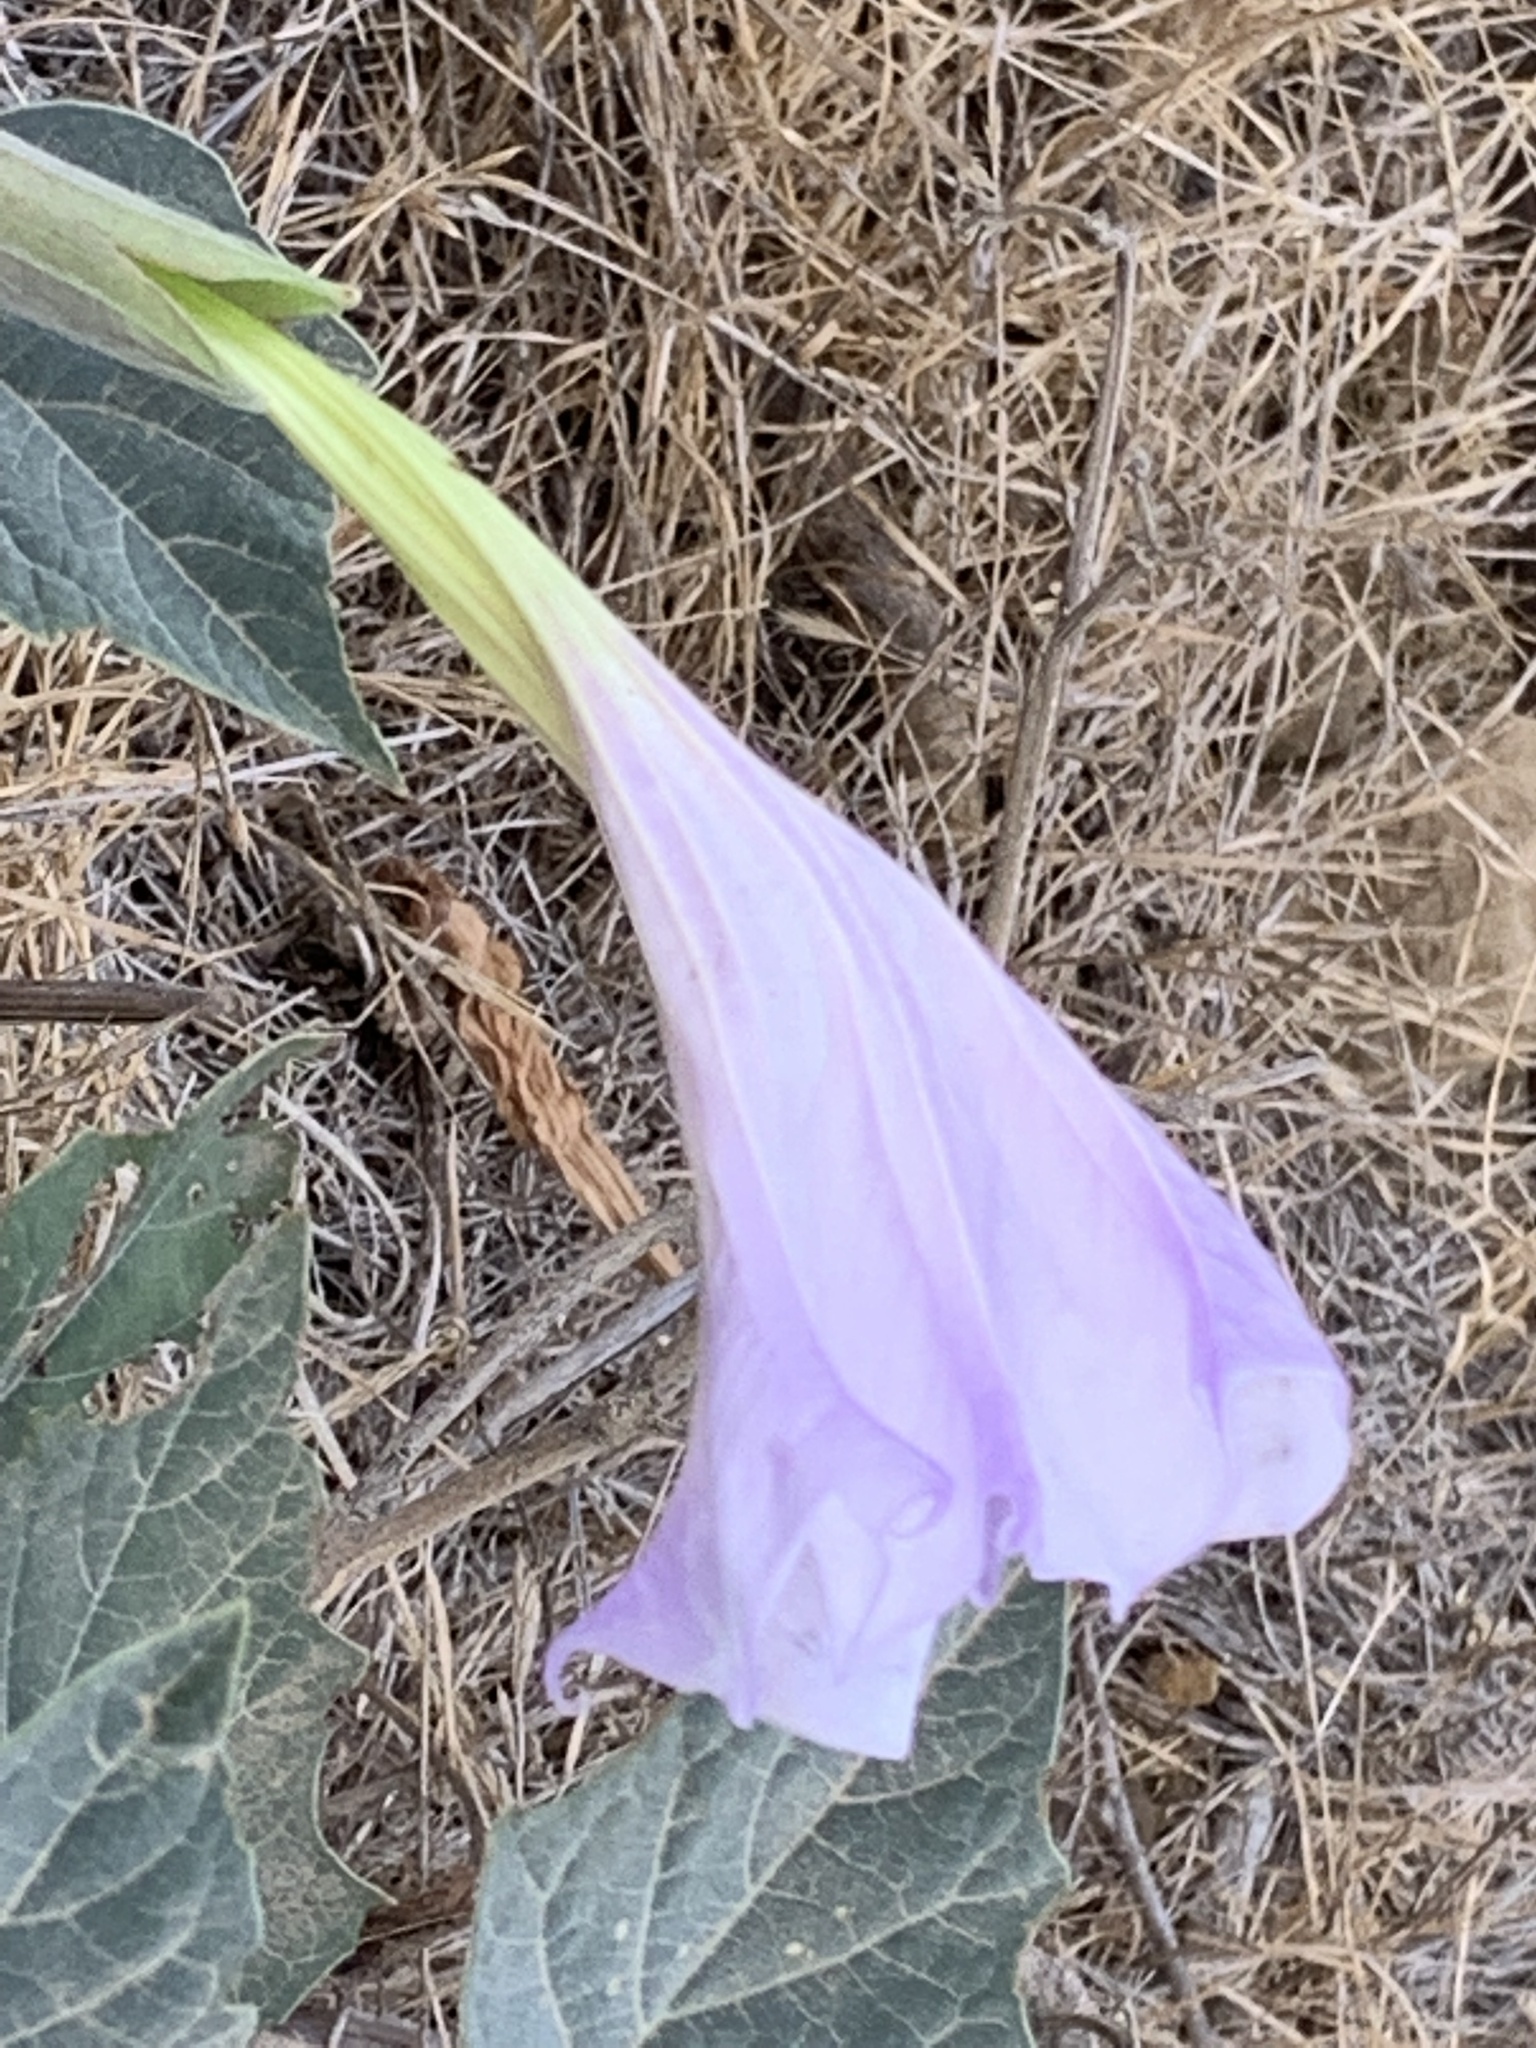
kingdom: Plantae
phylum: Tracheophyta
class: Magnoliopsida
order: Solanales
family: Solanaceae
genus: Datura
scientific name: Datura wrightii
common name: Sacred thorn-apple
